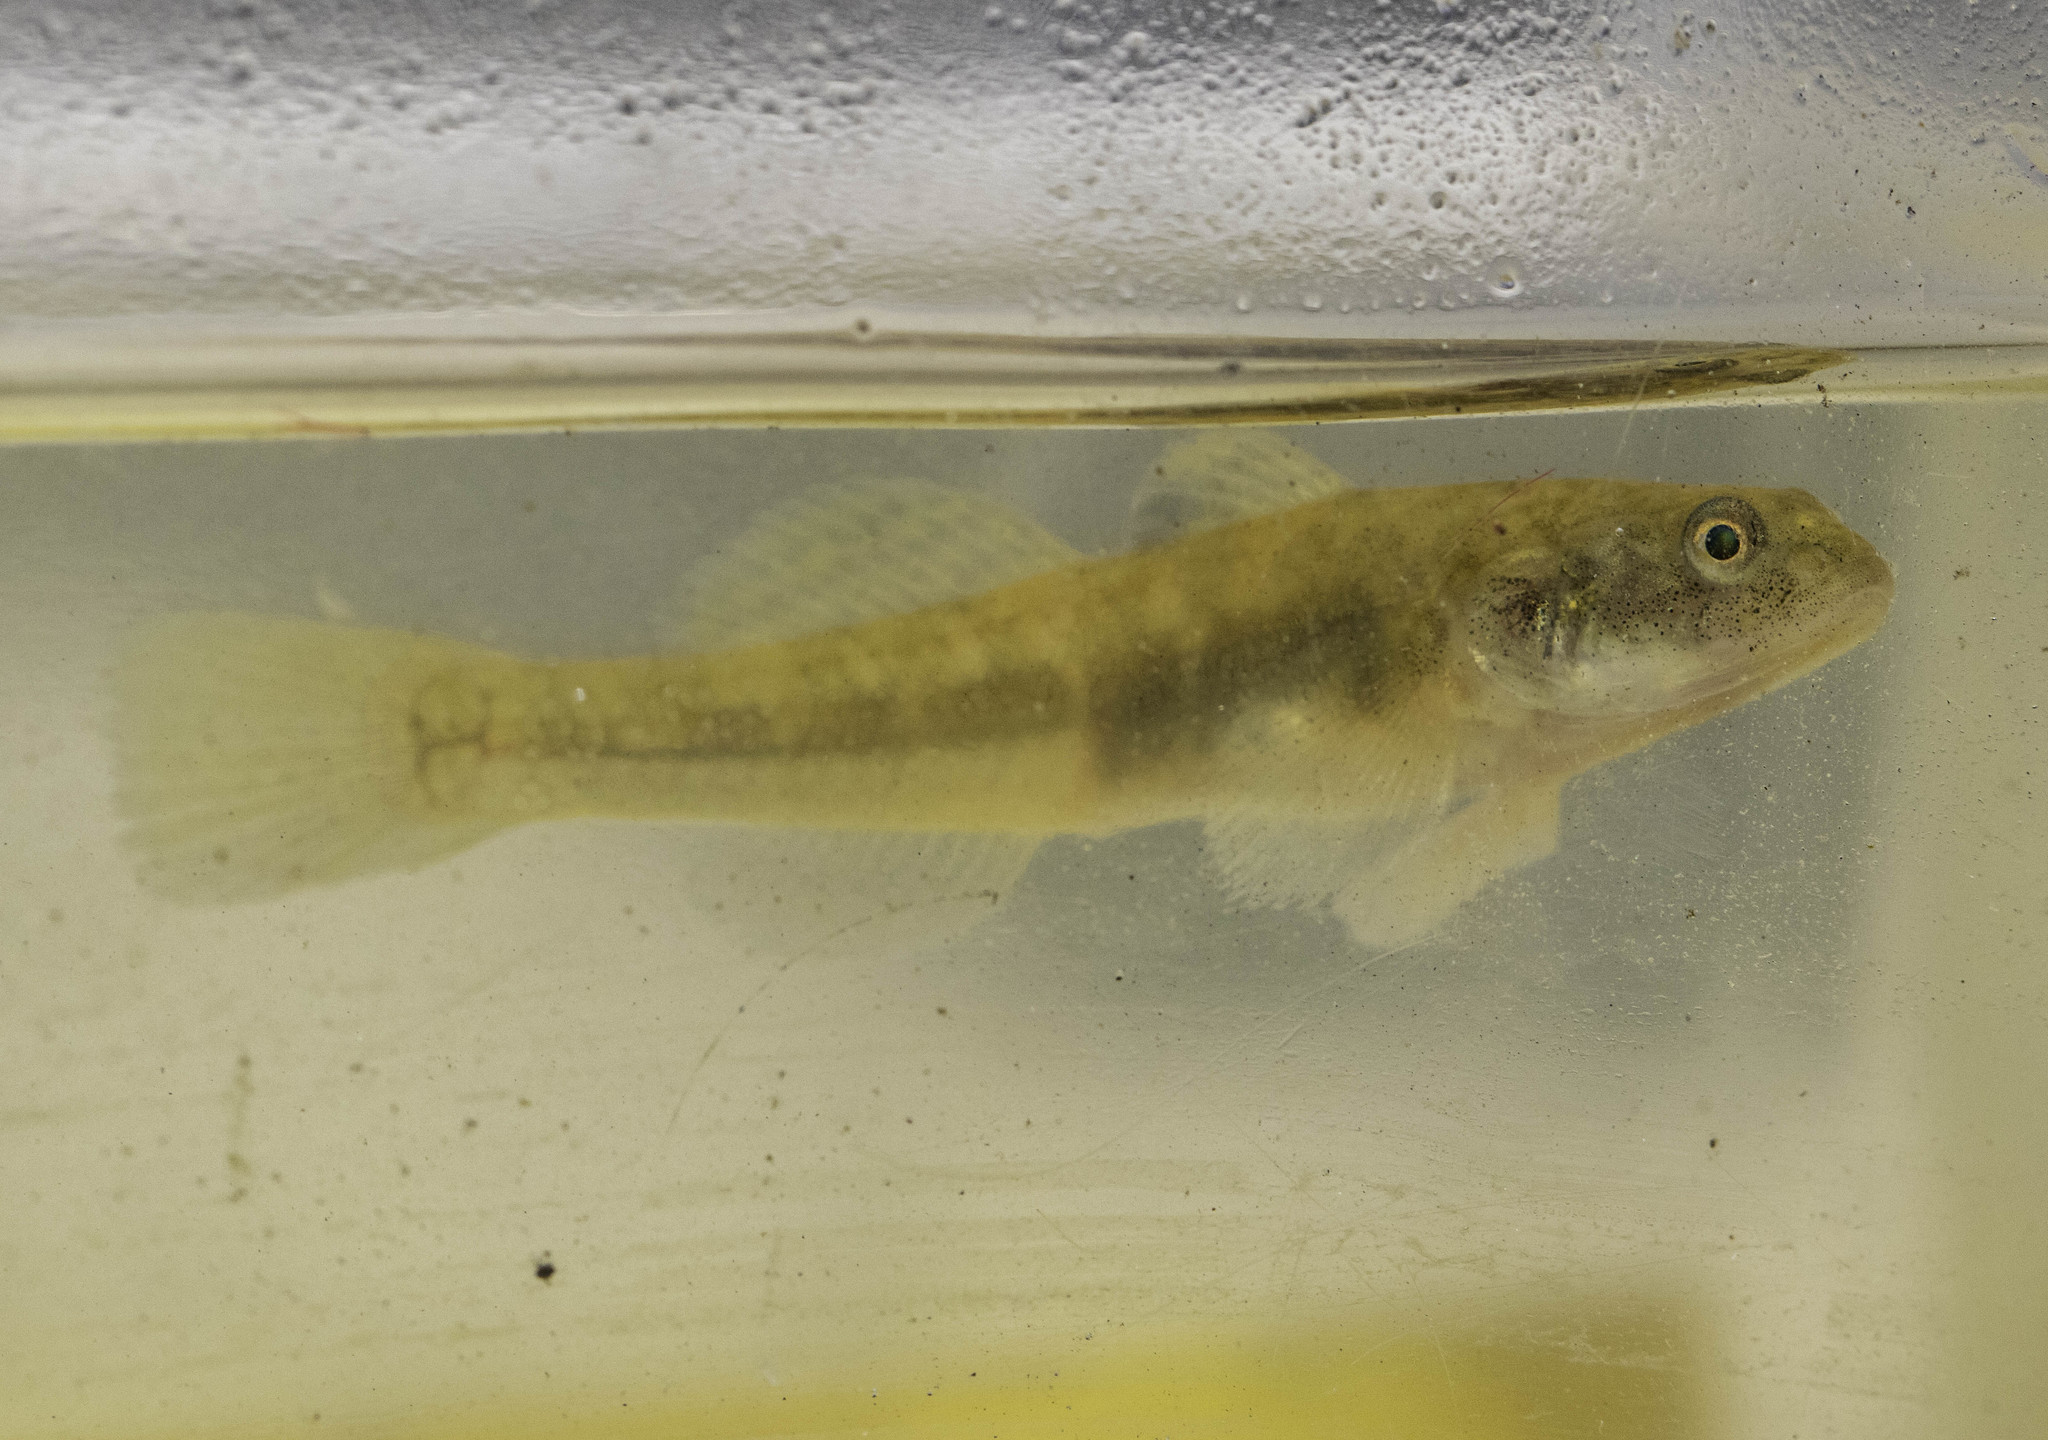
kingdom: Animalia
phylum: Chordata
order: Perciformes
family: Gobiidae
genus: Gillichthys
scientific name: Gillichthys mirabilis
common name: Longjaw mudsucker
